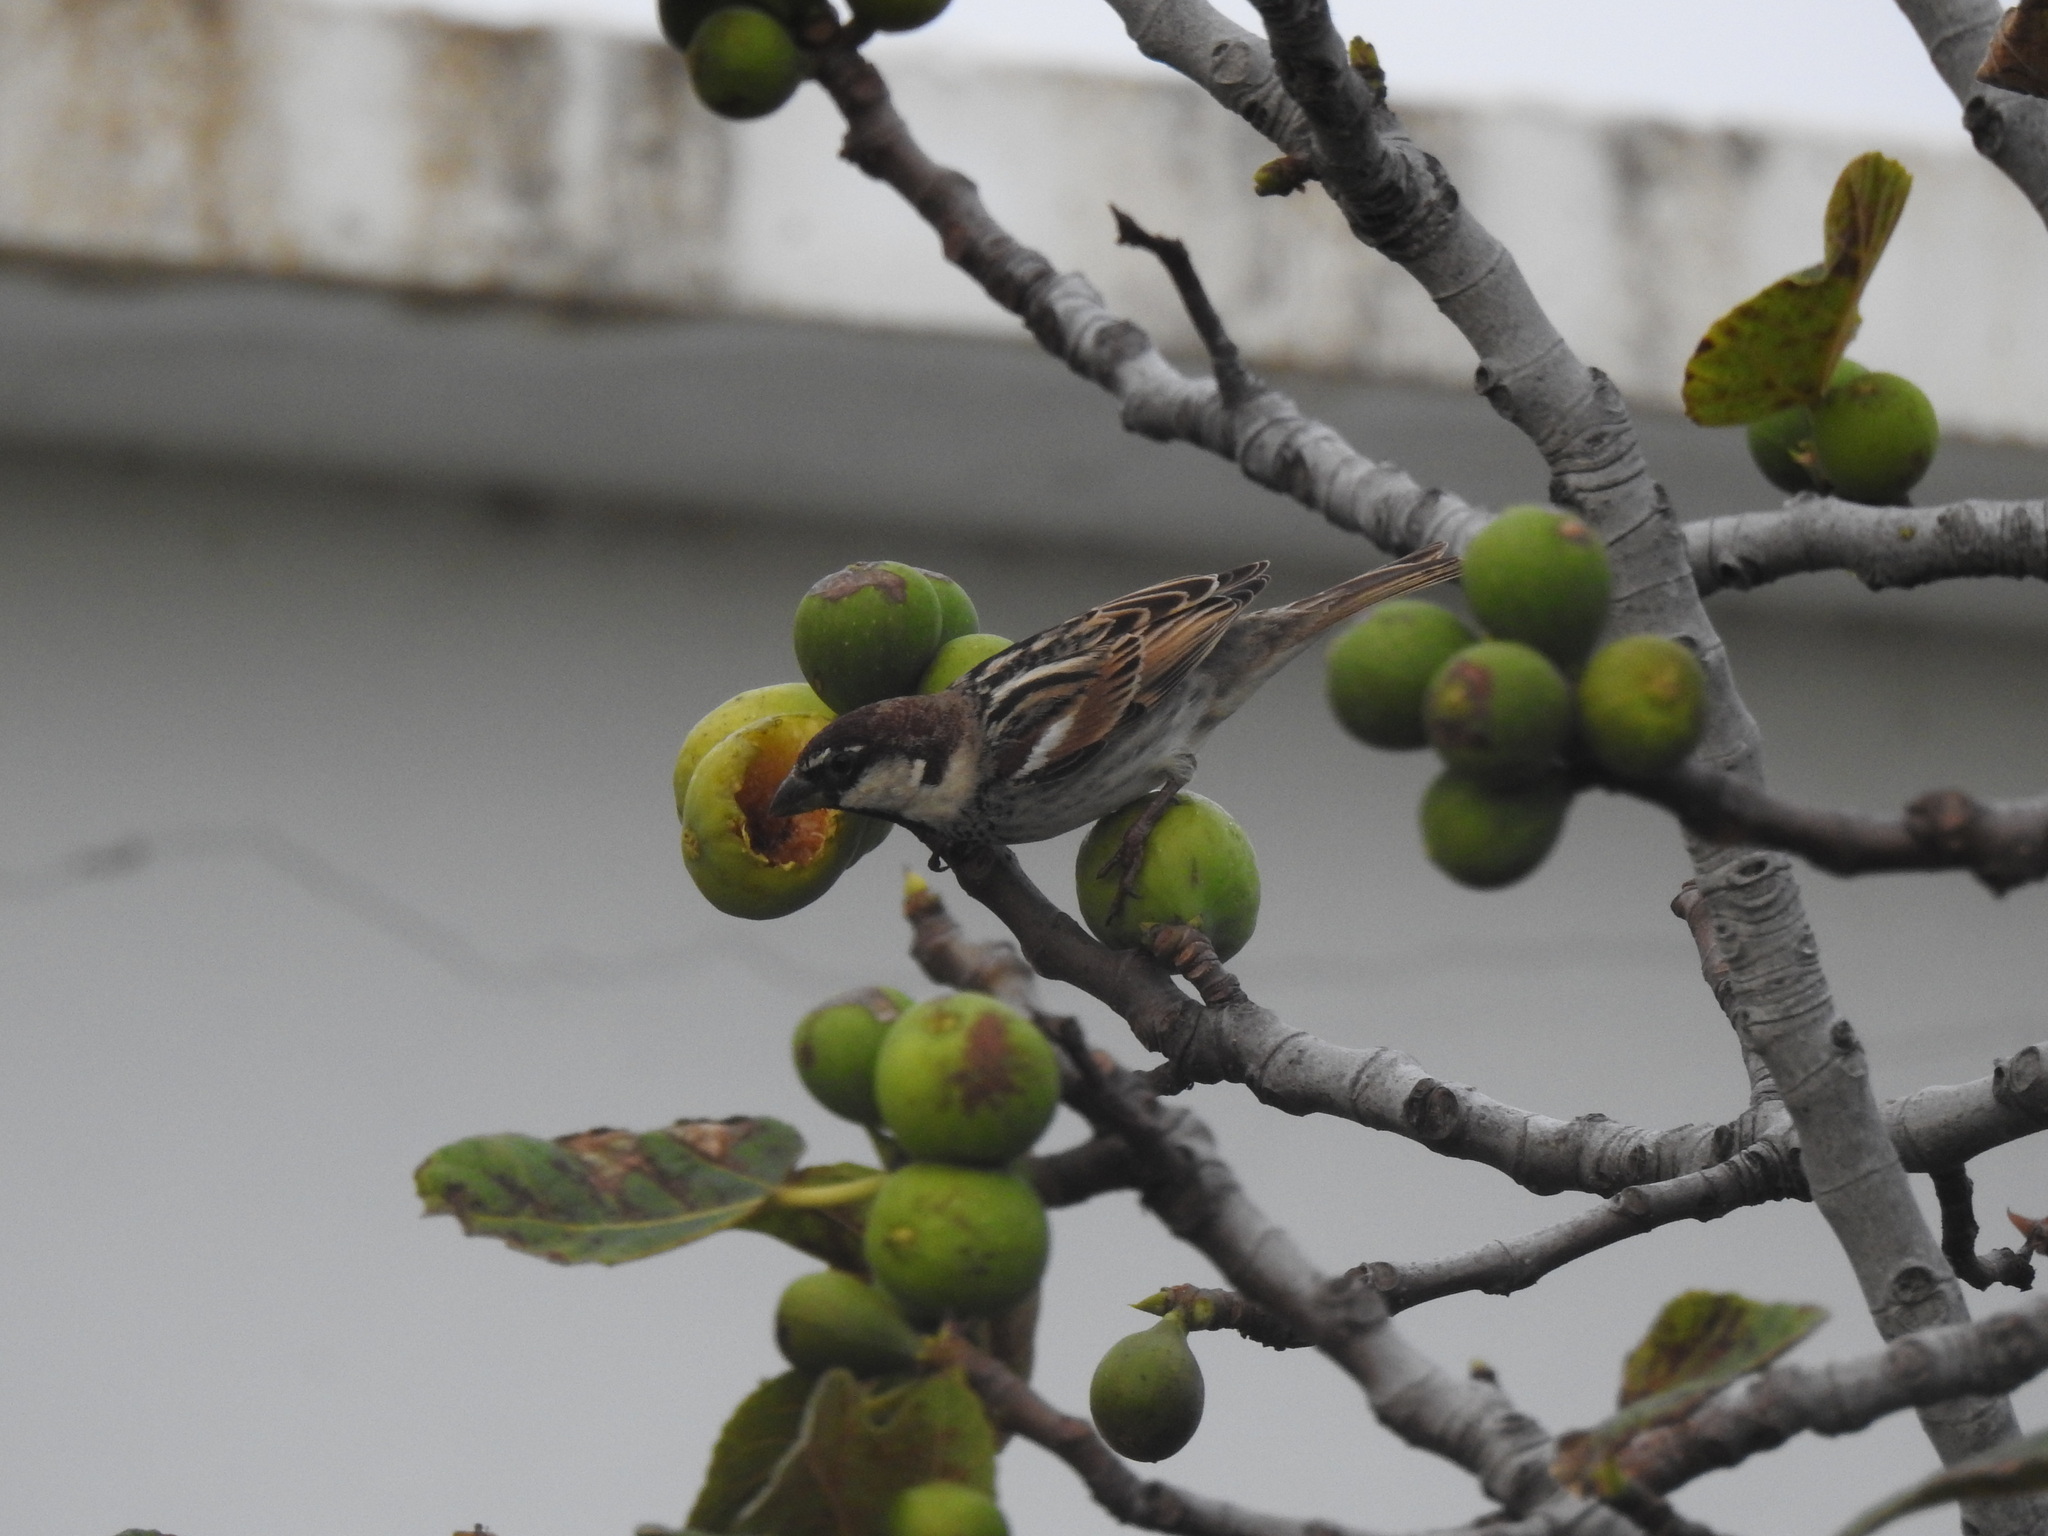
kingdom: Animalia
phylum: Chordata
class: Aves
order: Passeriformes
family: Passeridae
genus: Passer
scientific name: Passer hispaniolensis
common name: Spanish sparrow
